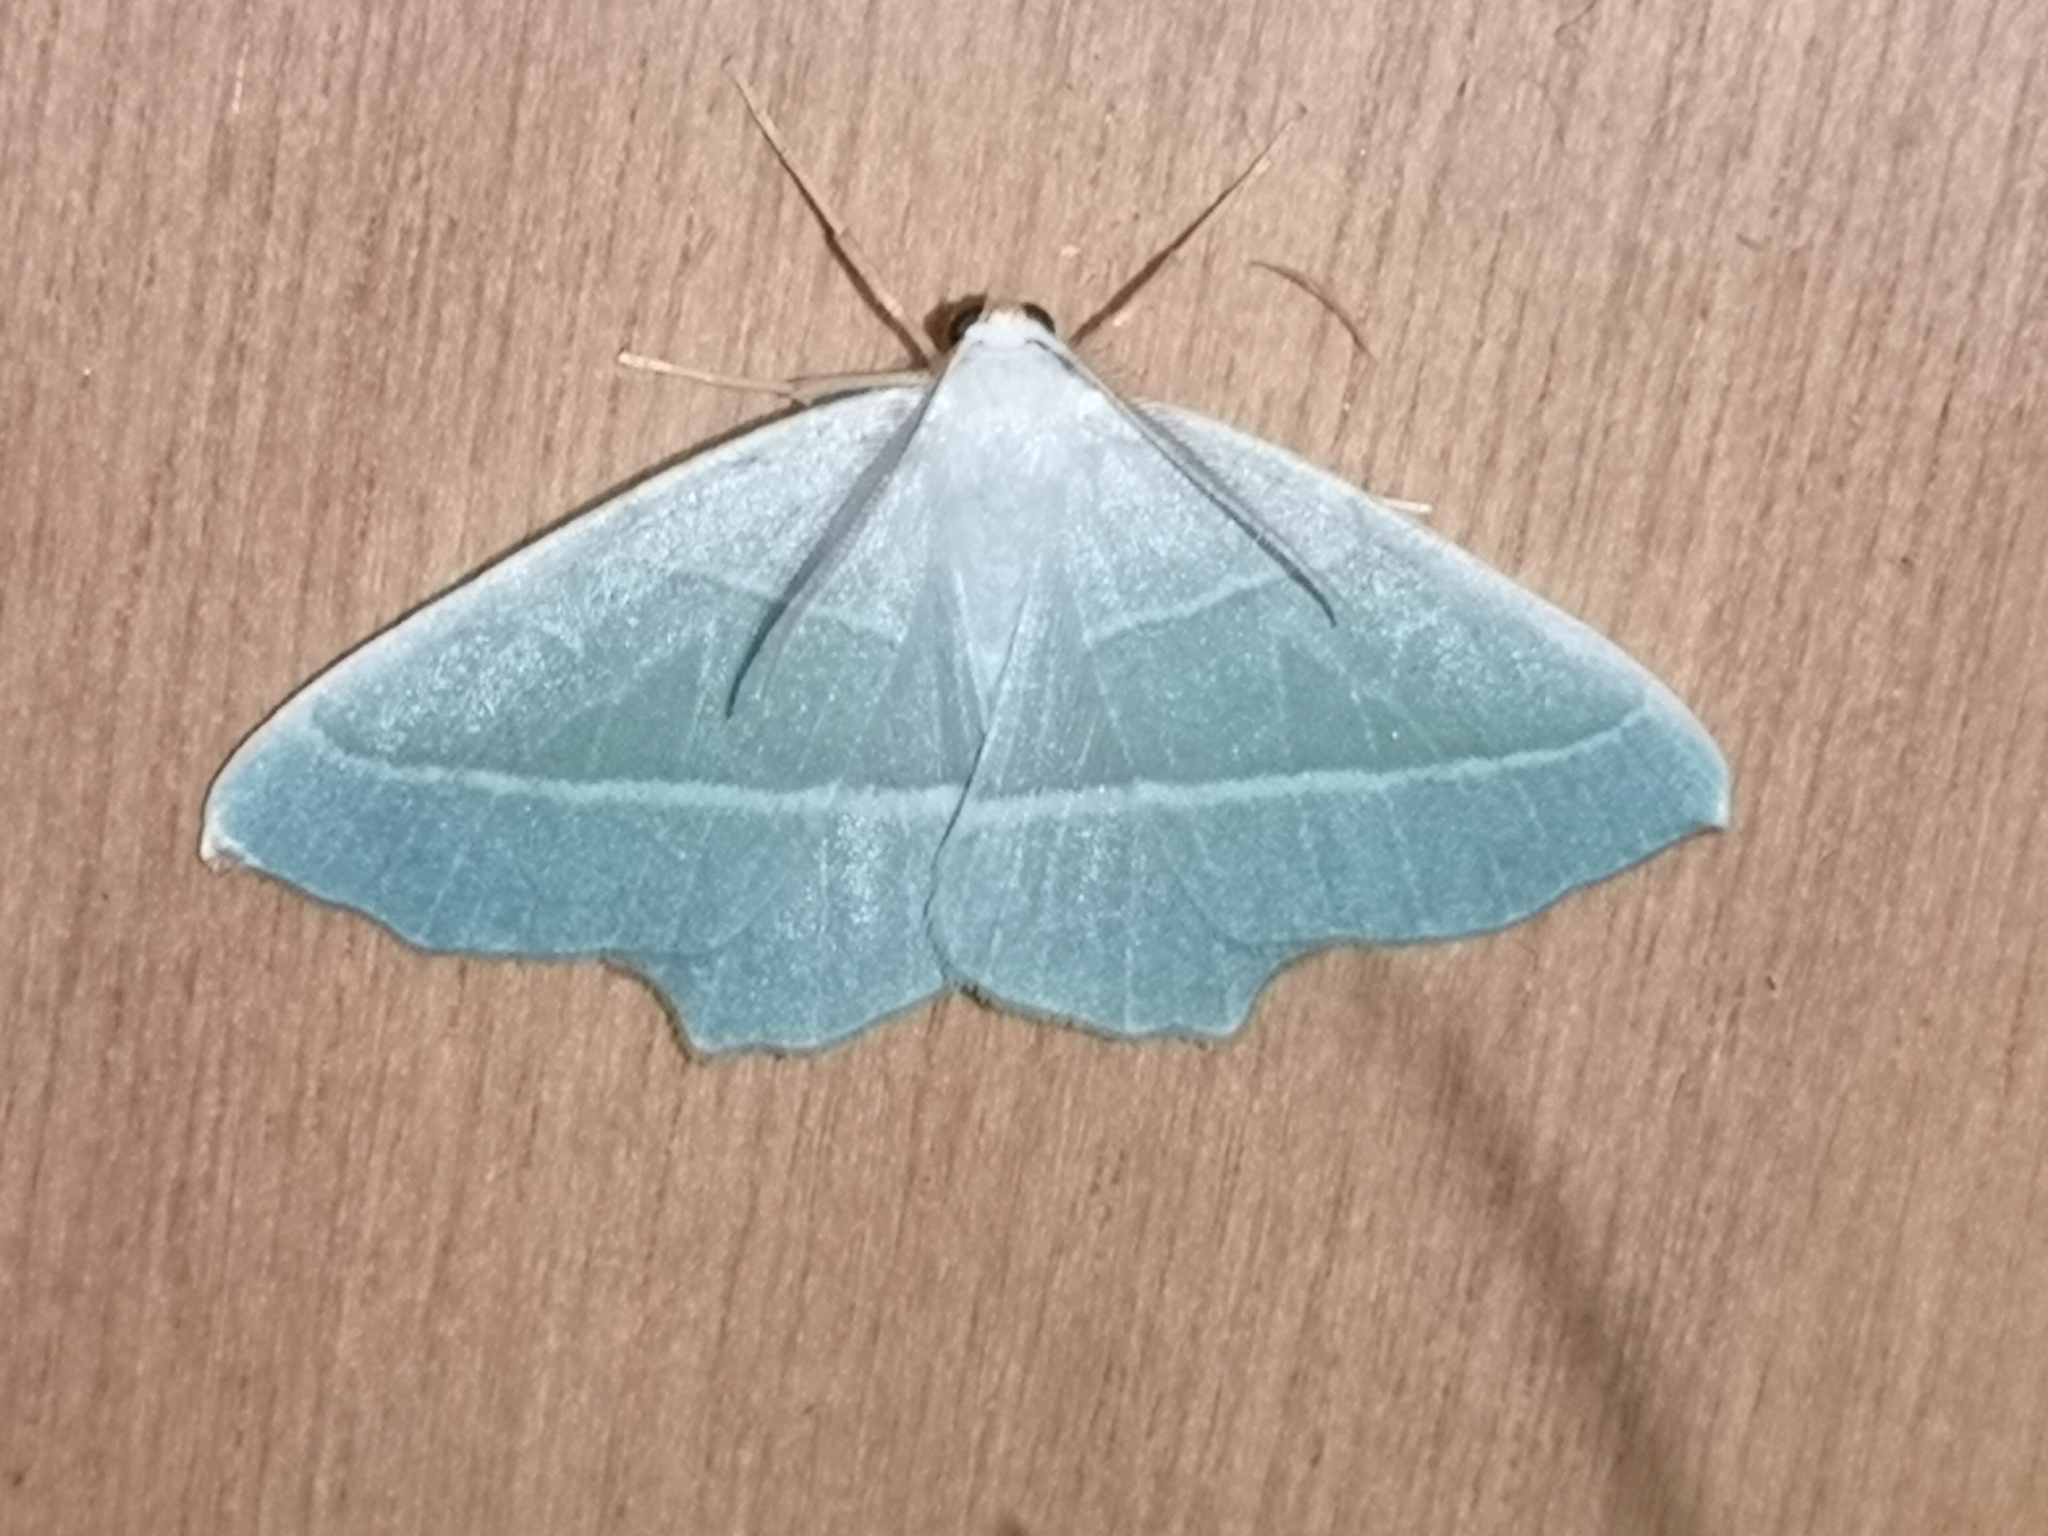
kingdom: Animalia
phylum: Arthropoda
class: Insecta
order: Lepidoptera
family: Geometridae
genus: Campaea
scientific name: Campaea margaritaria
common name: Light emerald
